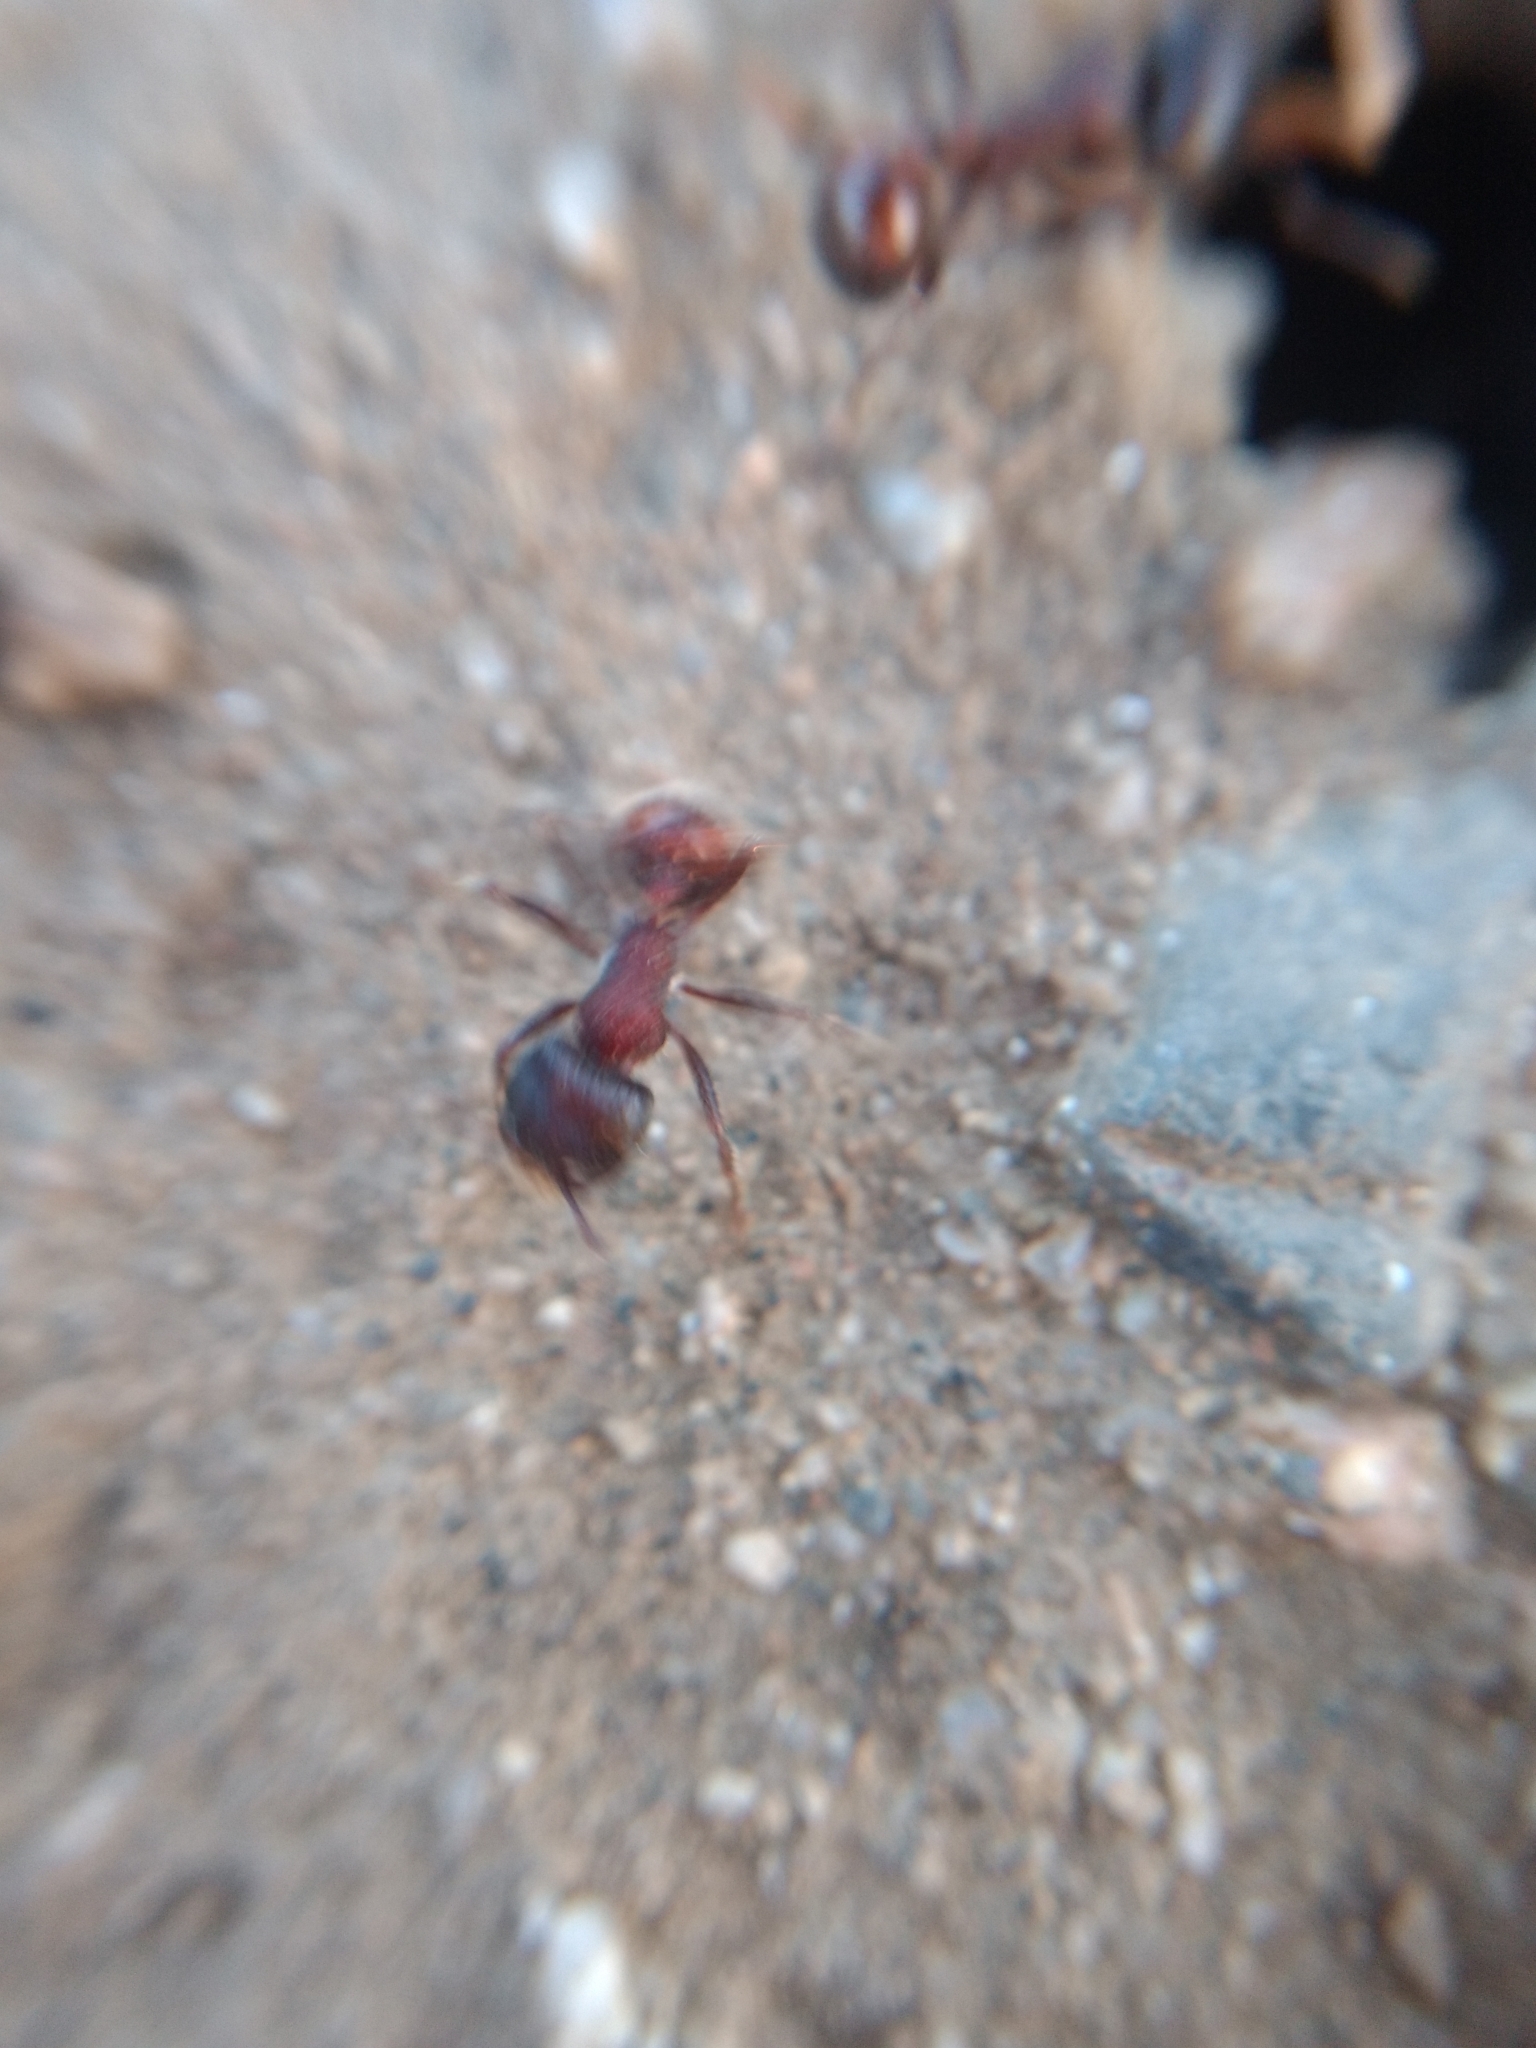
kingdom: Animalia
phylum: Arthropoda
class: Insecta
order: Hymenoptera
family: Formicidae
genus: Pogonomyrmex
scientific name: Pogonomyrmex rugosus
